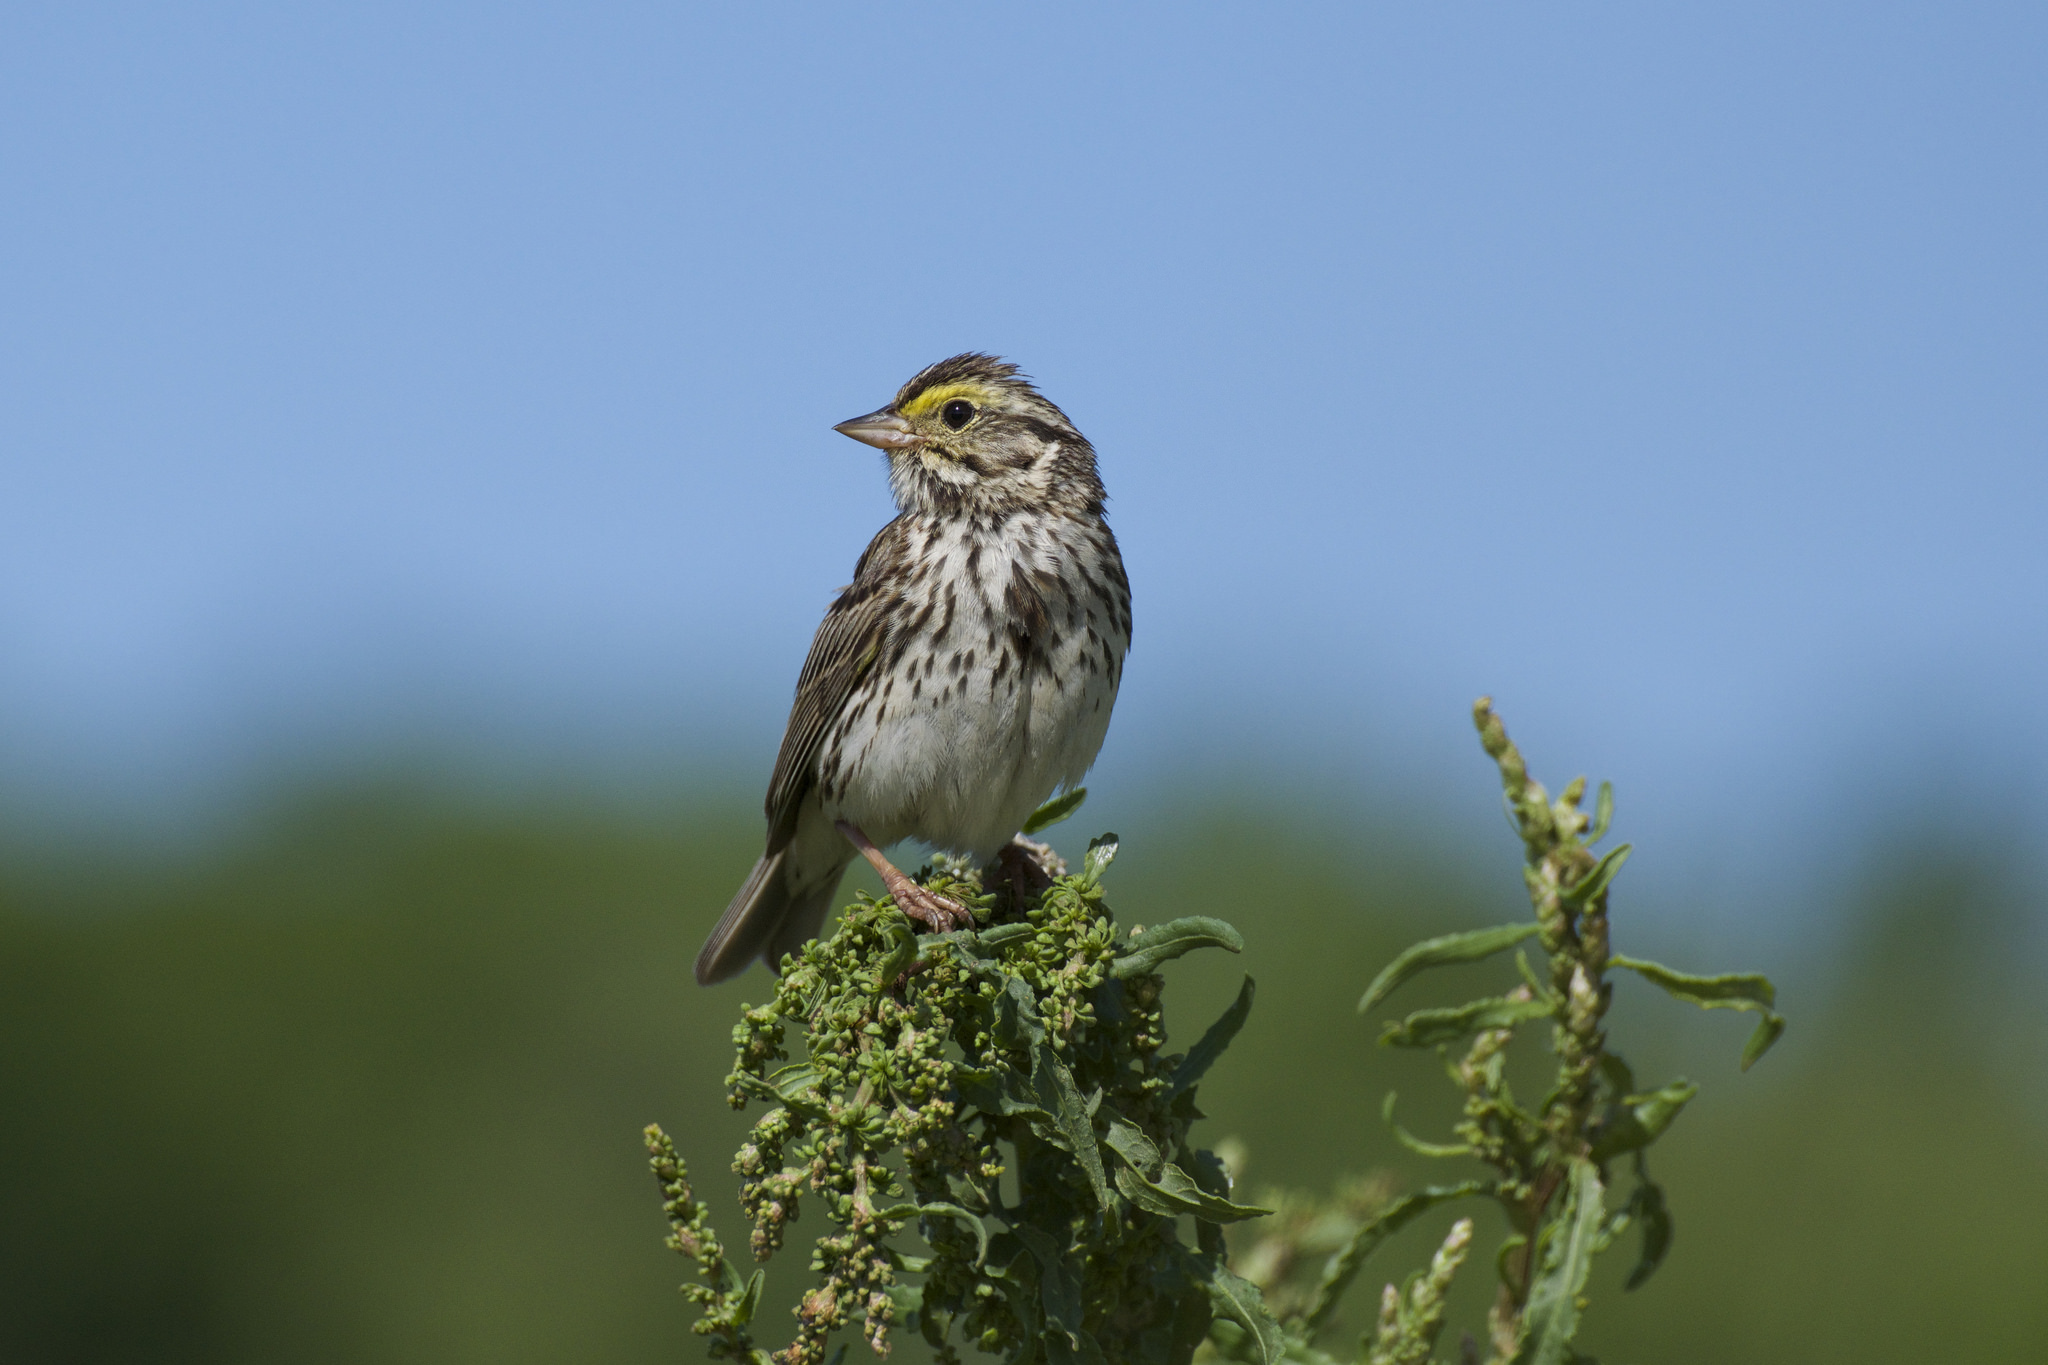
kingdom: Animalia
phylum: Chordata
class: Aves
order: Passeriformes
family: Passerellidae
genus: Passerculus
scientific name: Passerculus sandwichensis
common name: Savannah sparrow
